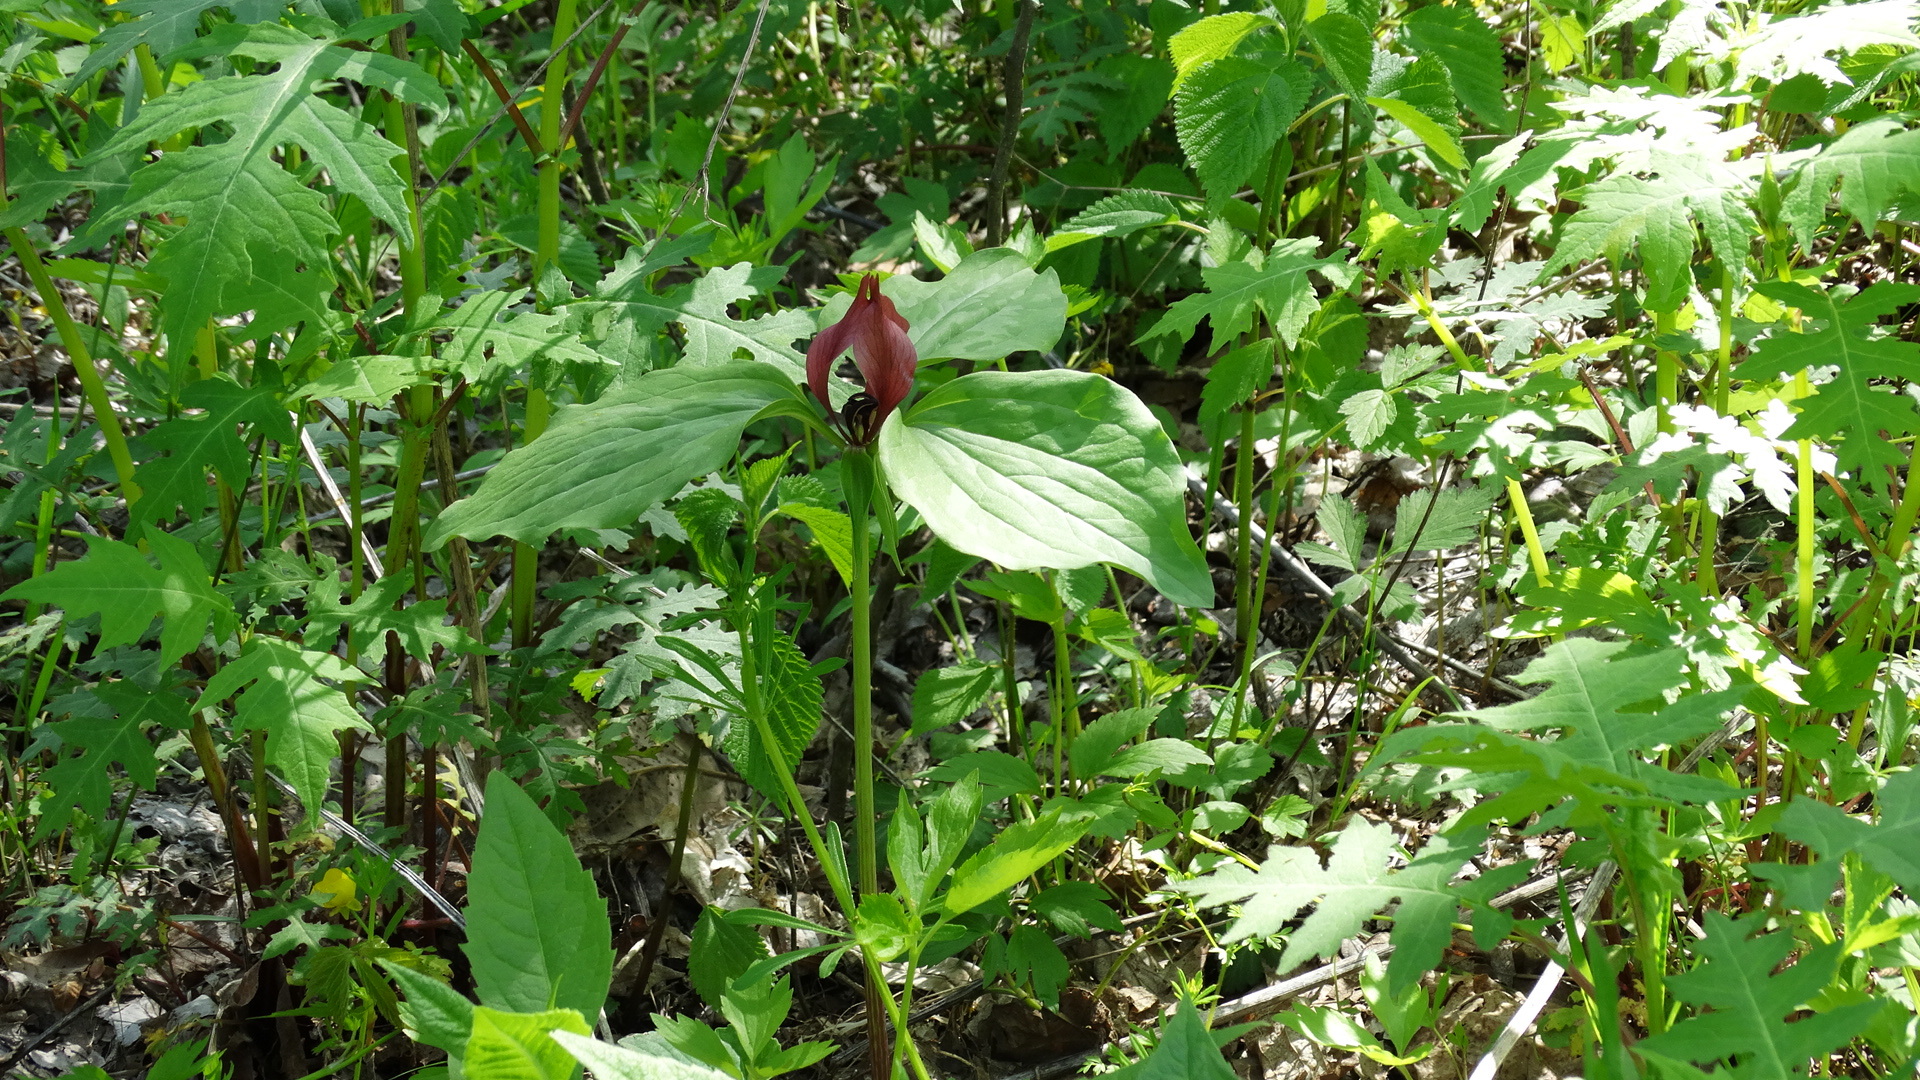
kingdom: Plantae
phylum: Tracheophyta
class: Liliopsida
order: Liliales
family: Melanthiaceae
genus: Trillium
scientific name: Trillium recurvatum
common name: Bloody butcher
